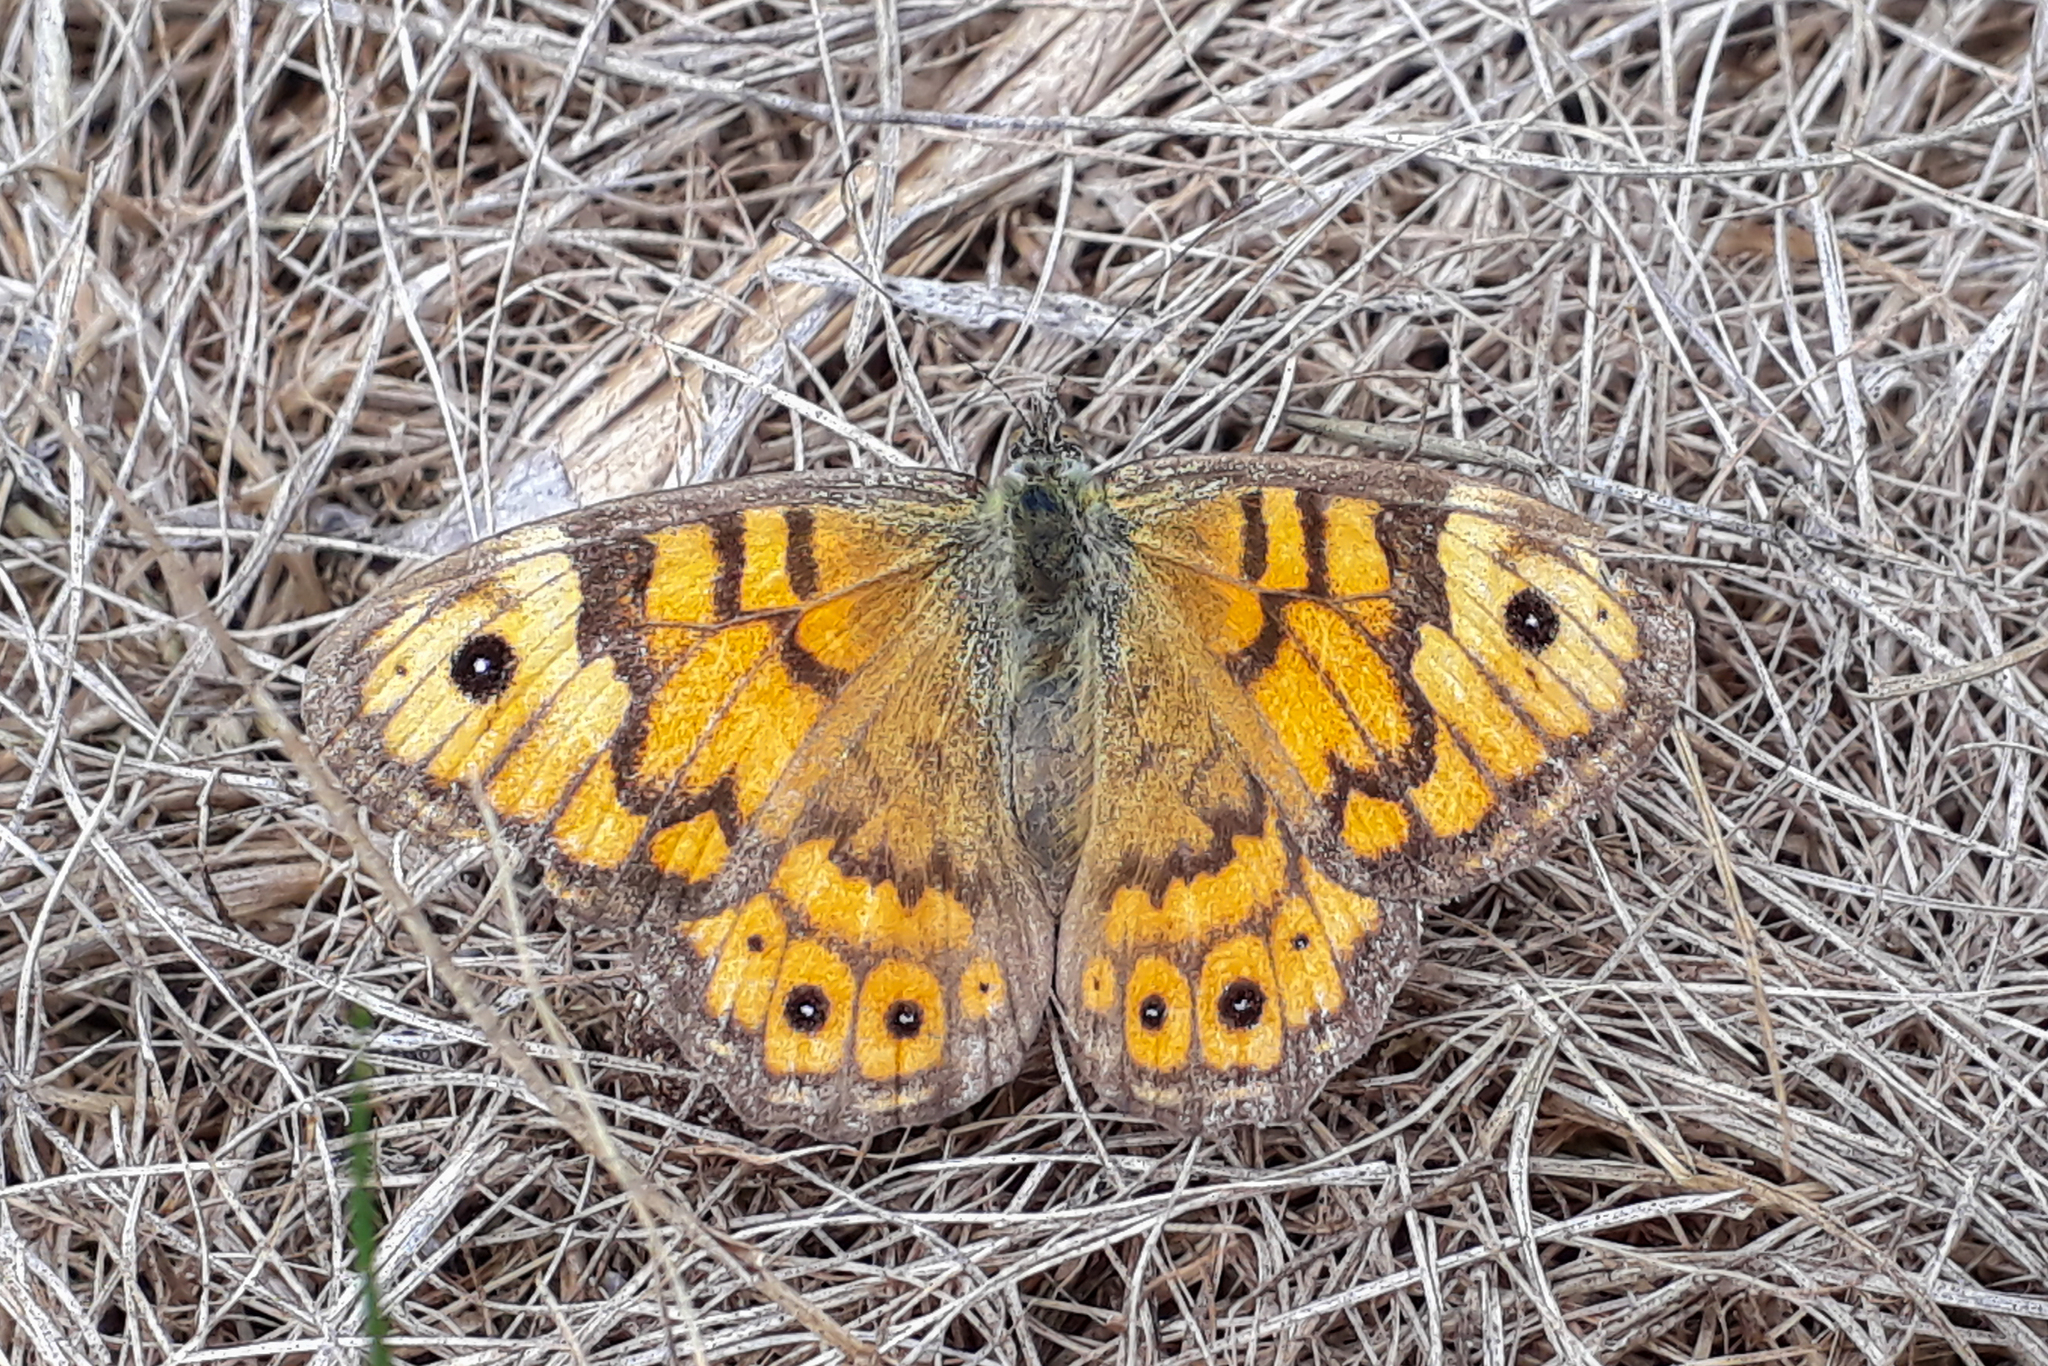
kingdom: Animalia
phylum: Arthropoda
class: Insecta
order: Lepidoptera
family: Nymphalidae
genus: Pararge
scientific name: Pararge Lasiommata megera
